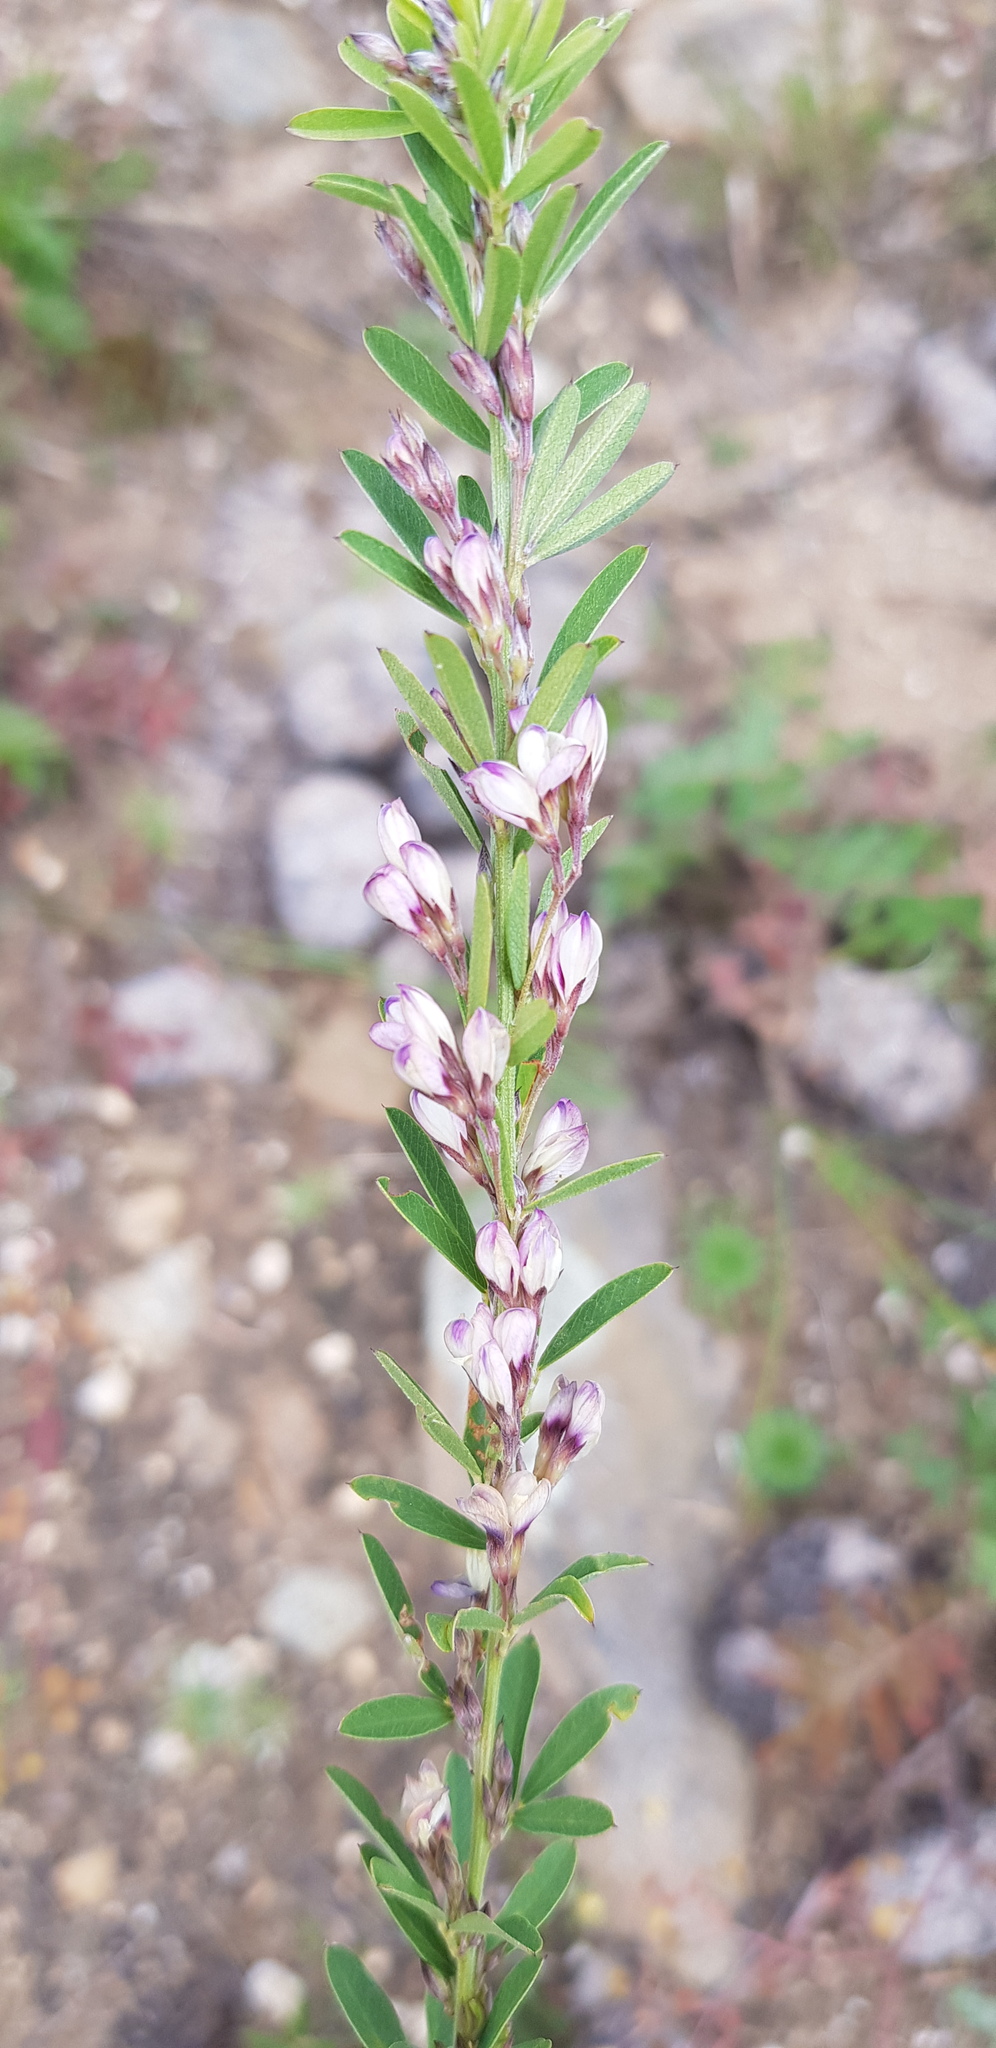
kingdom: Plantae
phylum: Tracheophyta
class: Magnoliopsida
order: Fabales
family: Fabaceae
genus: Lespedeza
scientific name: Lespedeza daurica
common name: Dahurian lespedeza
